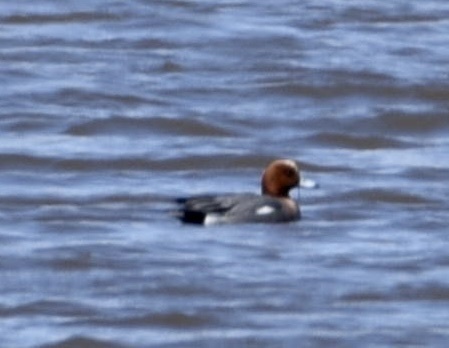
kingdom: Animalia
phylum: Chordata
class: Aves
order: Anseriformes
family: Anatidae
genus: Mareca
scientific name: Mareca penelope
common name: Eurasian wigeon
